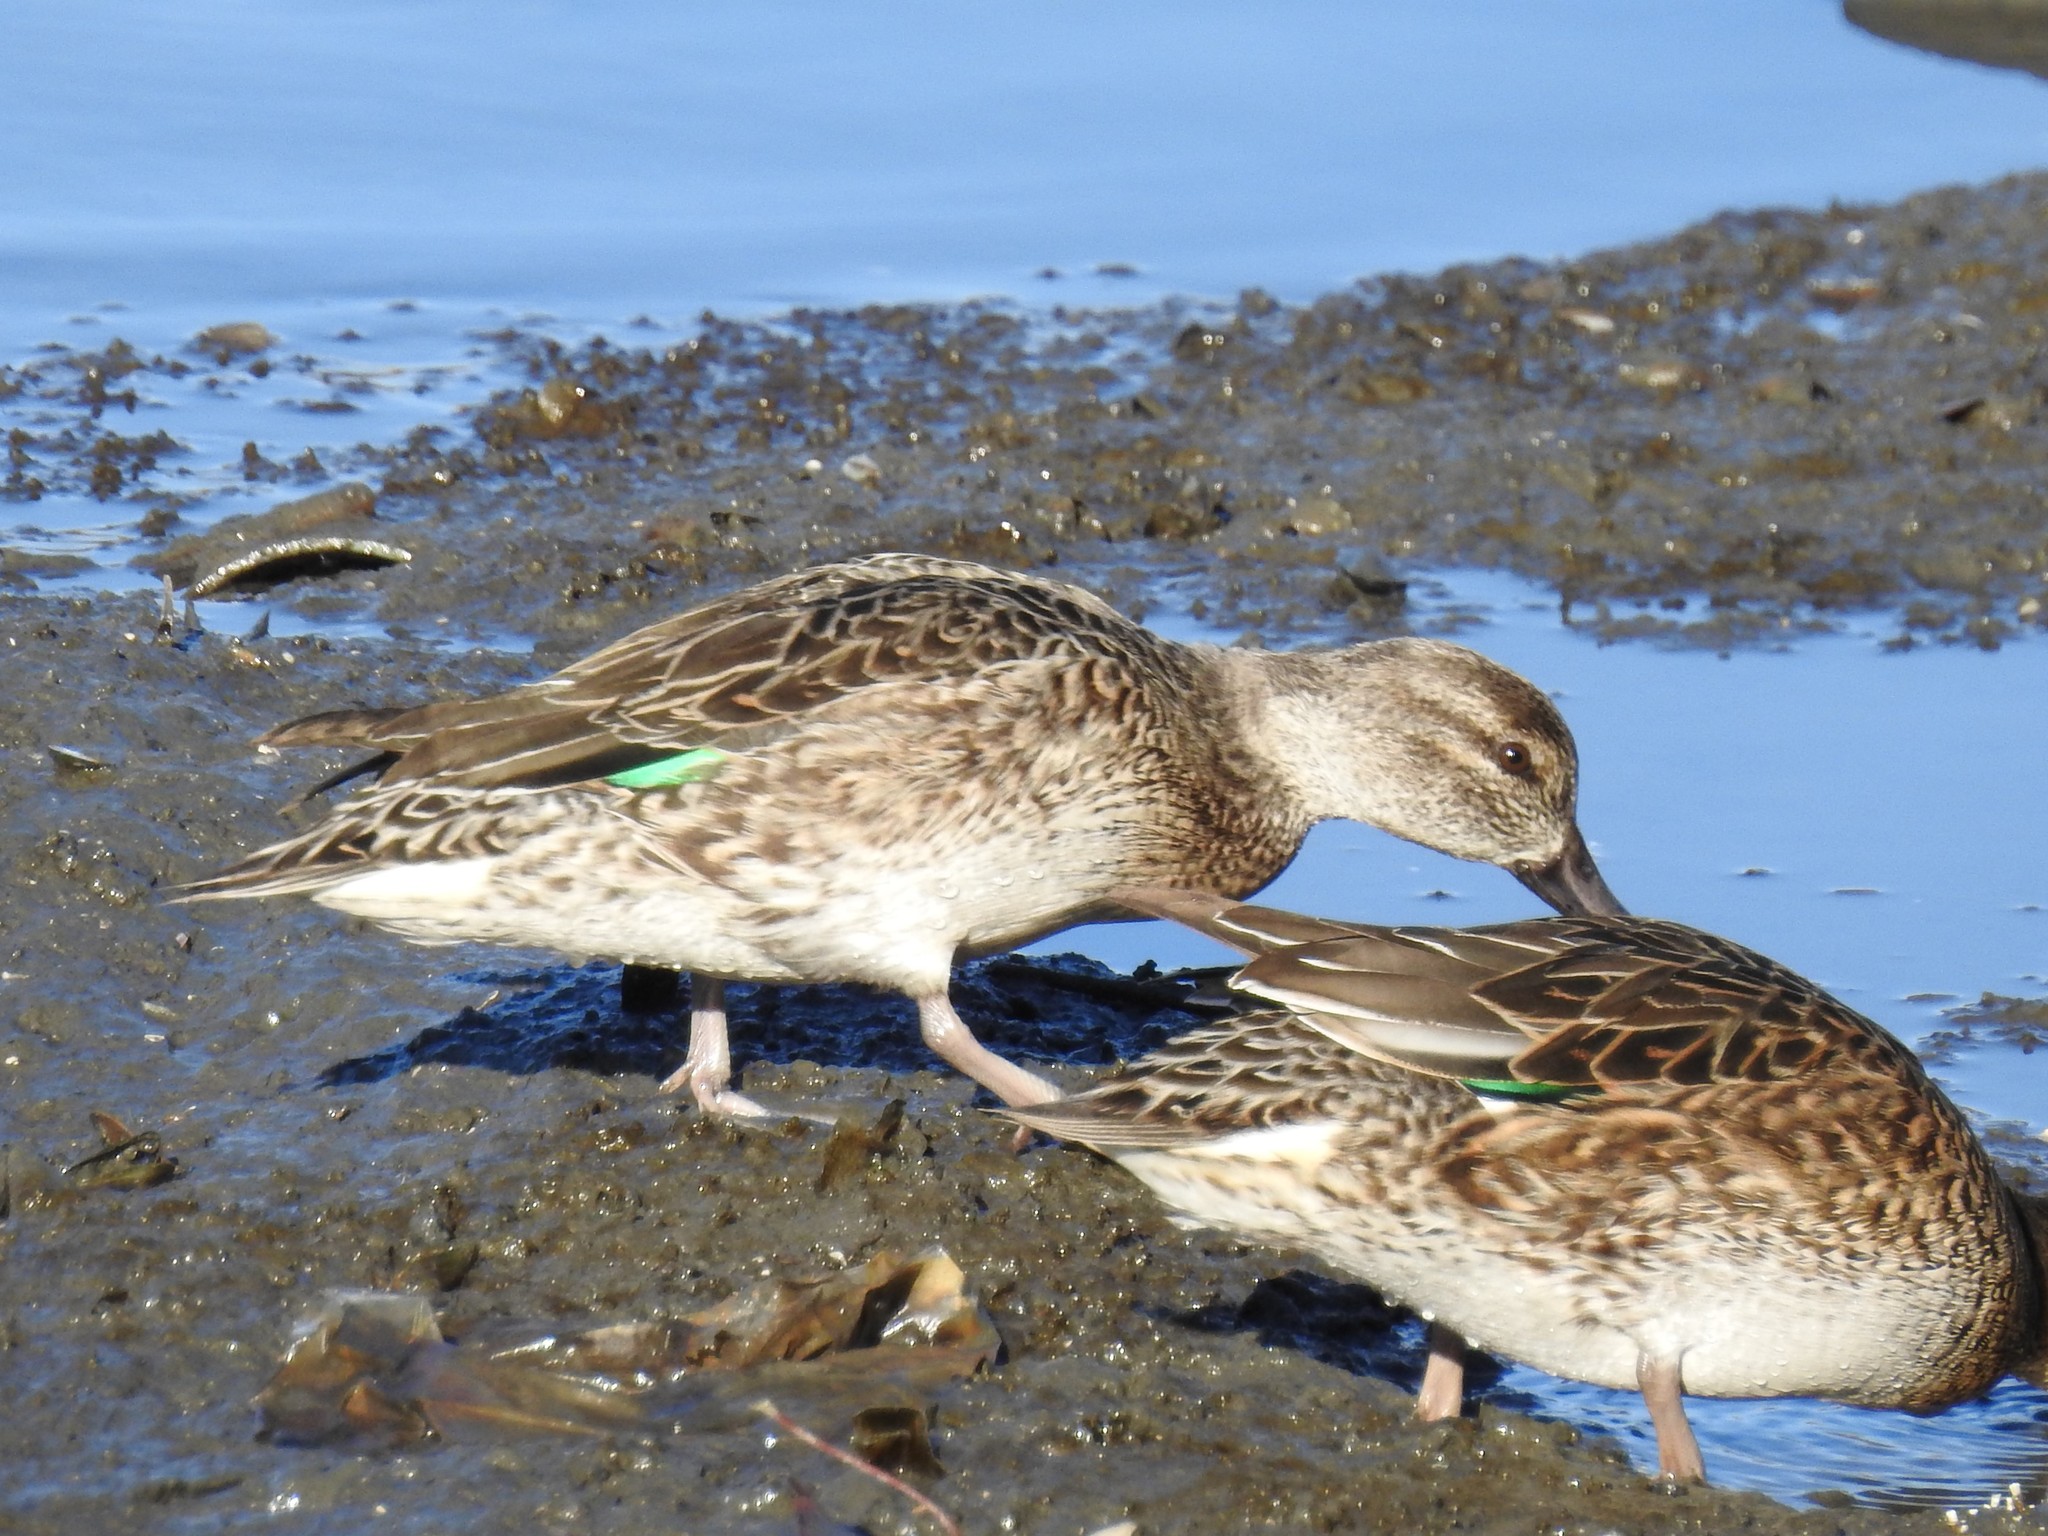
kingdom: Animalia
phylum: Chordata
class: Aves
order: Anseriformes
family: Anatidae
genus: Anas
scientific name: Anas crecca
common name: Eurasian teal
